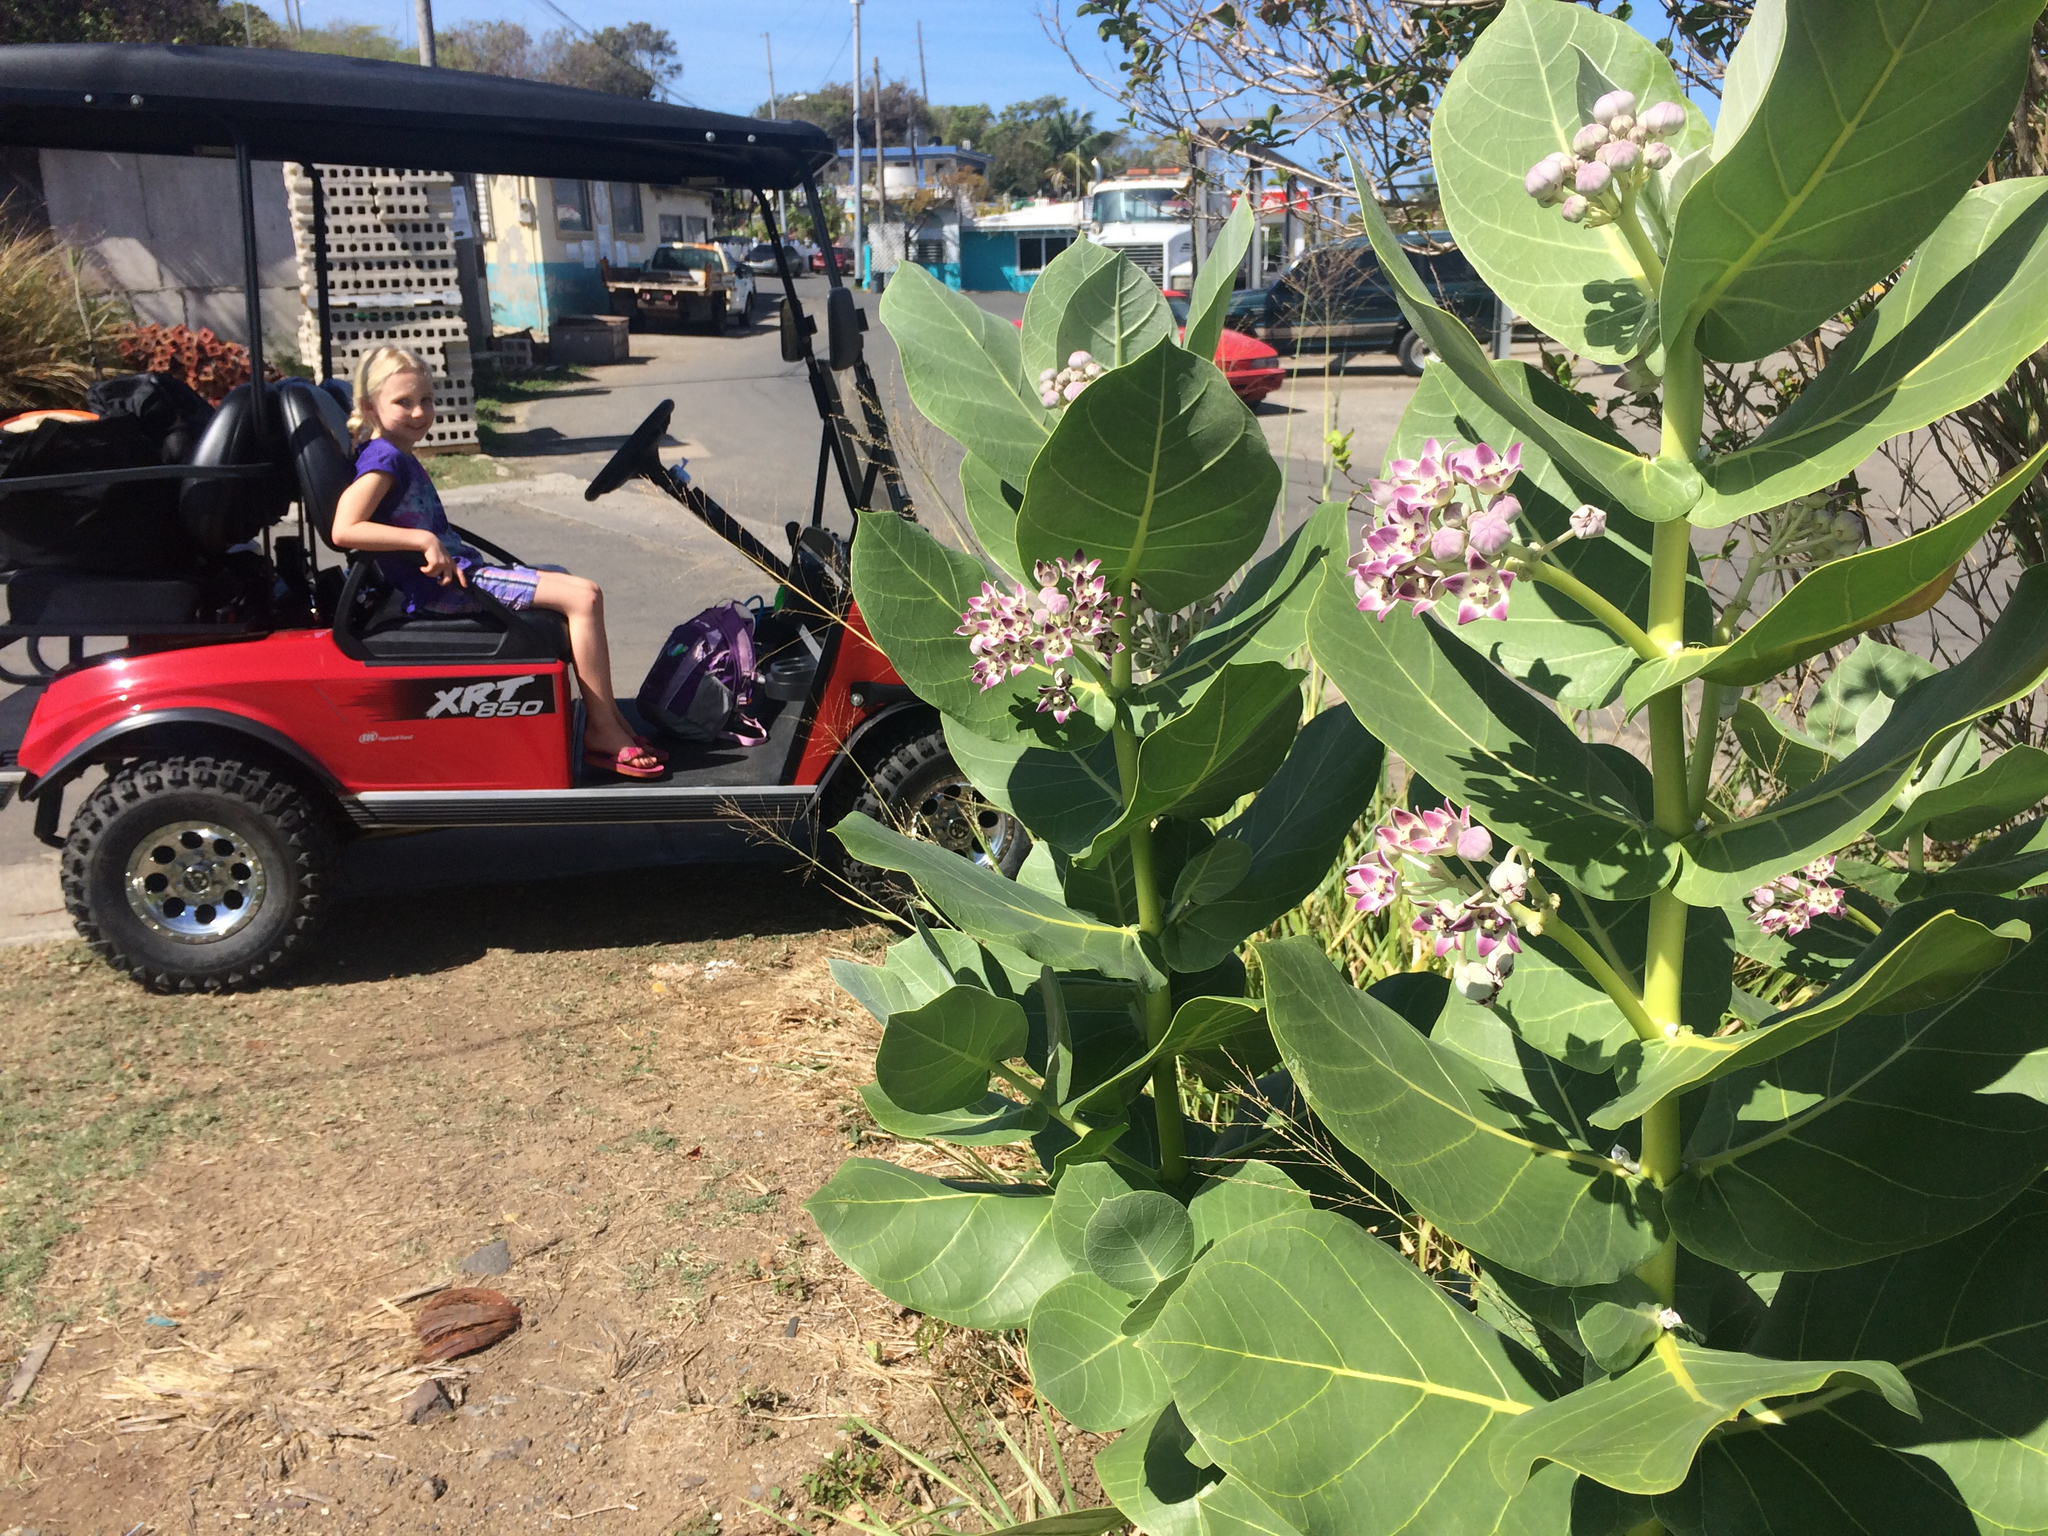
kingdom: Plantae
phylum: Tracheophyta
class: Magnoliopsida
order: Gentianales
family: Apocynaceae
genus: Calotropis
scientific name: Calotropis procera
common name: Roostertree
